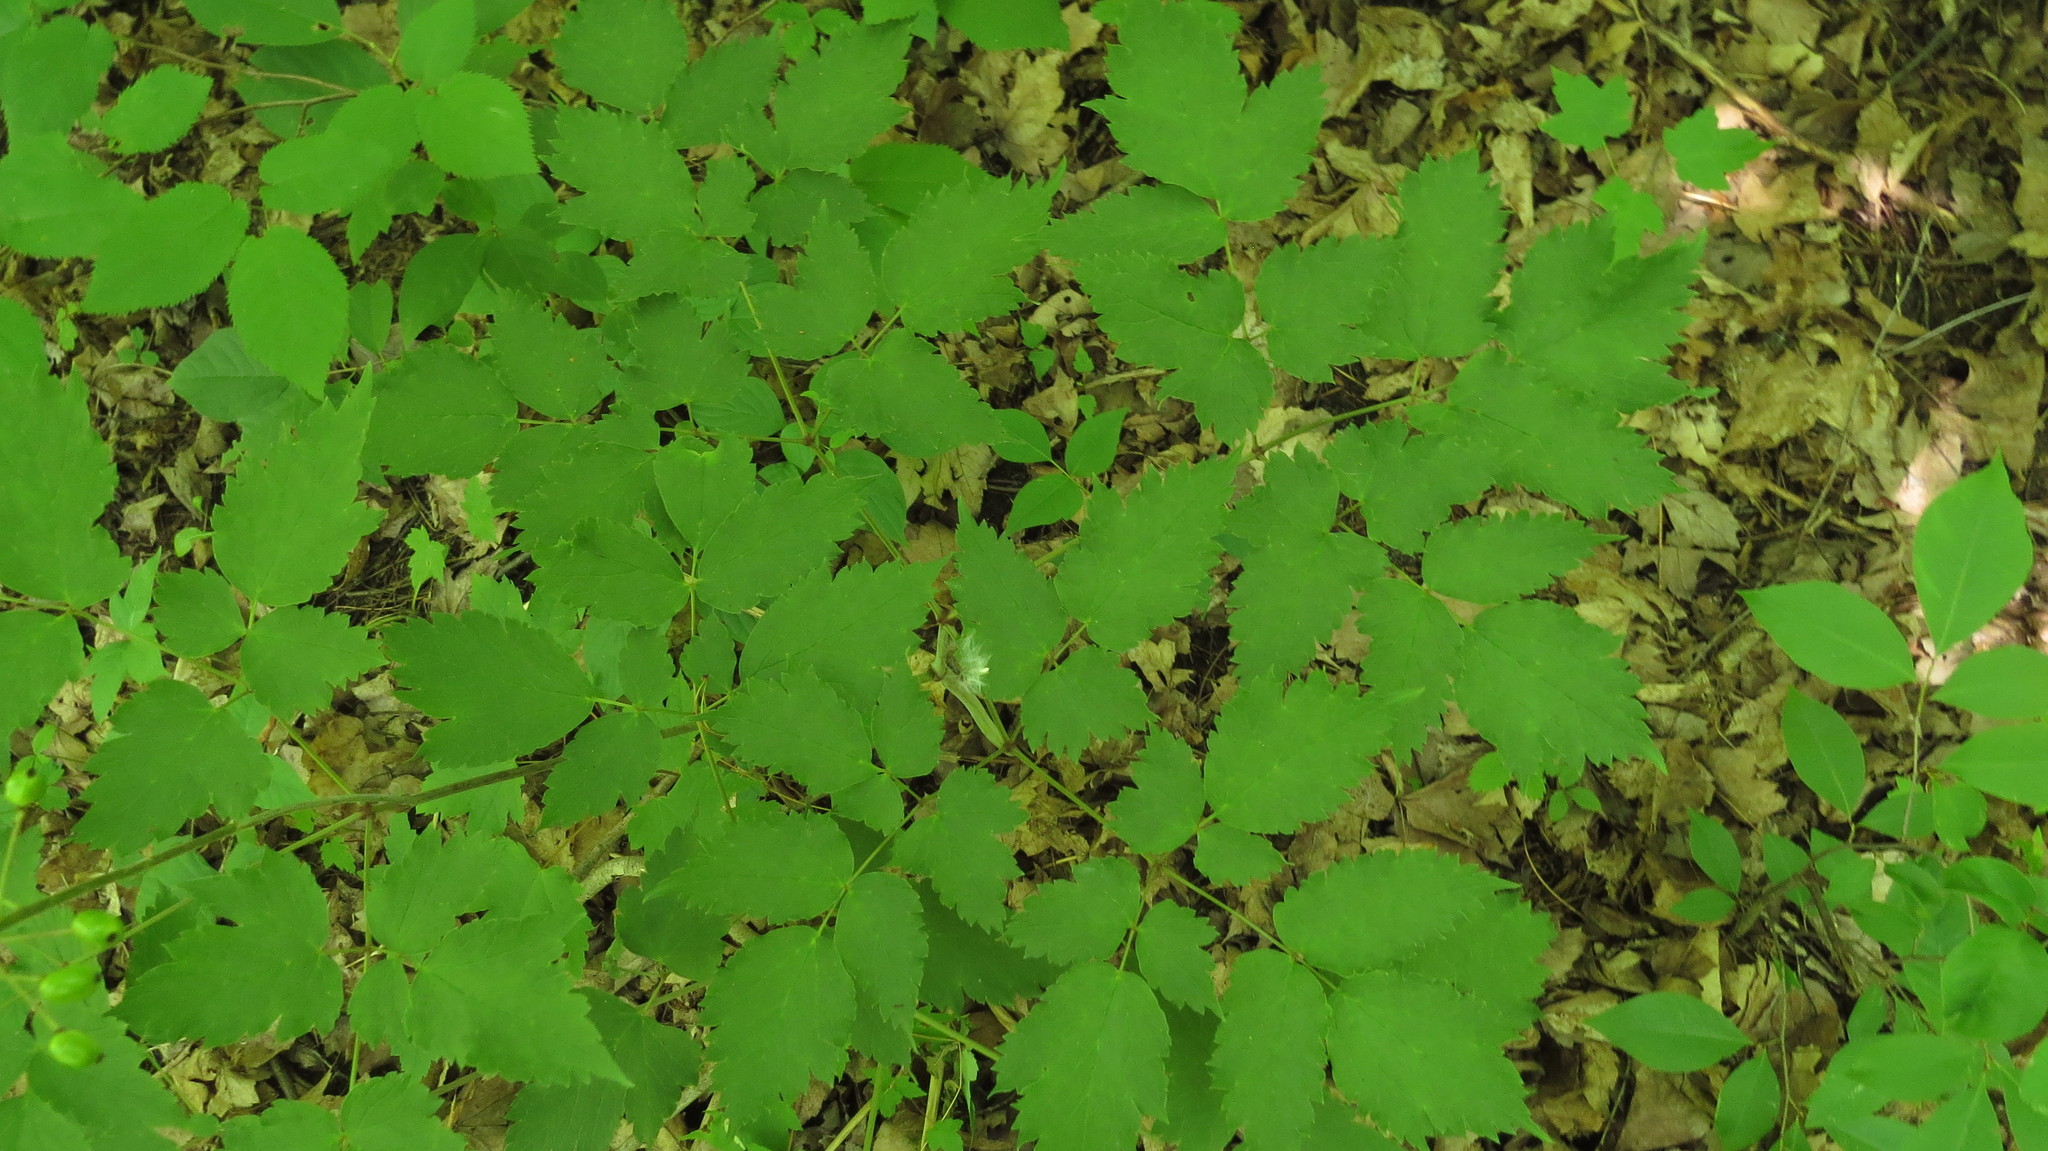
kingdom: Plantae
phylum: Tracheophyta
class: Magnoliopsida
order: Ranunculales
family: Ranunculaceae
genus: Actaea
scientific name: Actaea rubra
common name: Red baneberry
